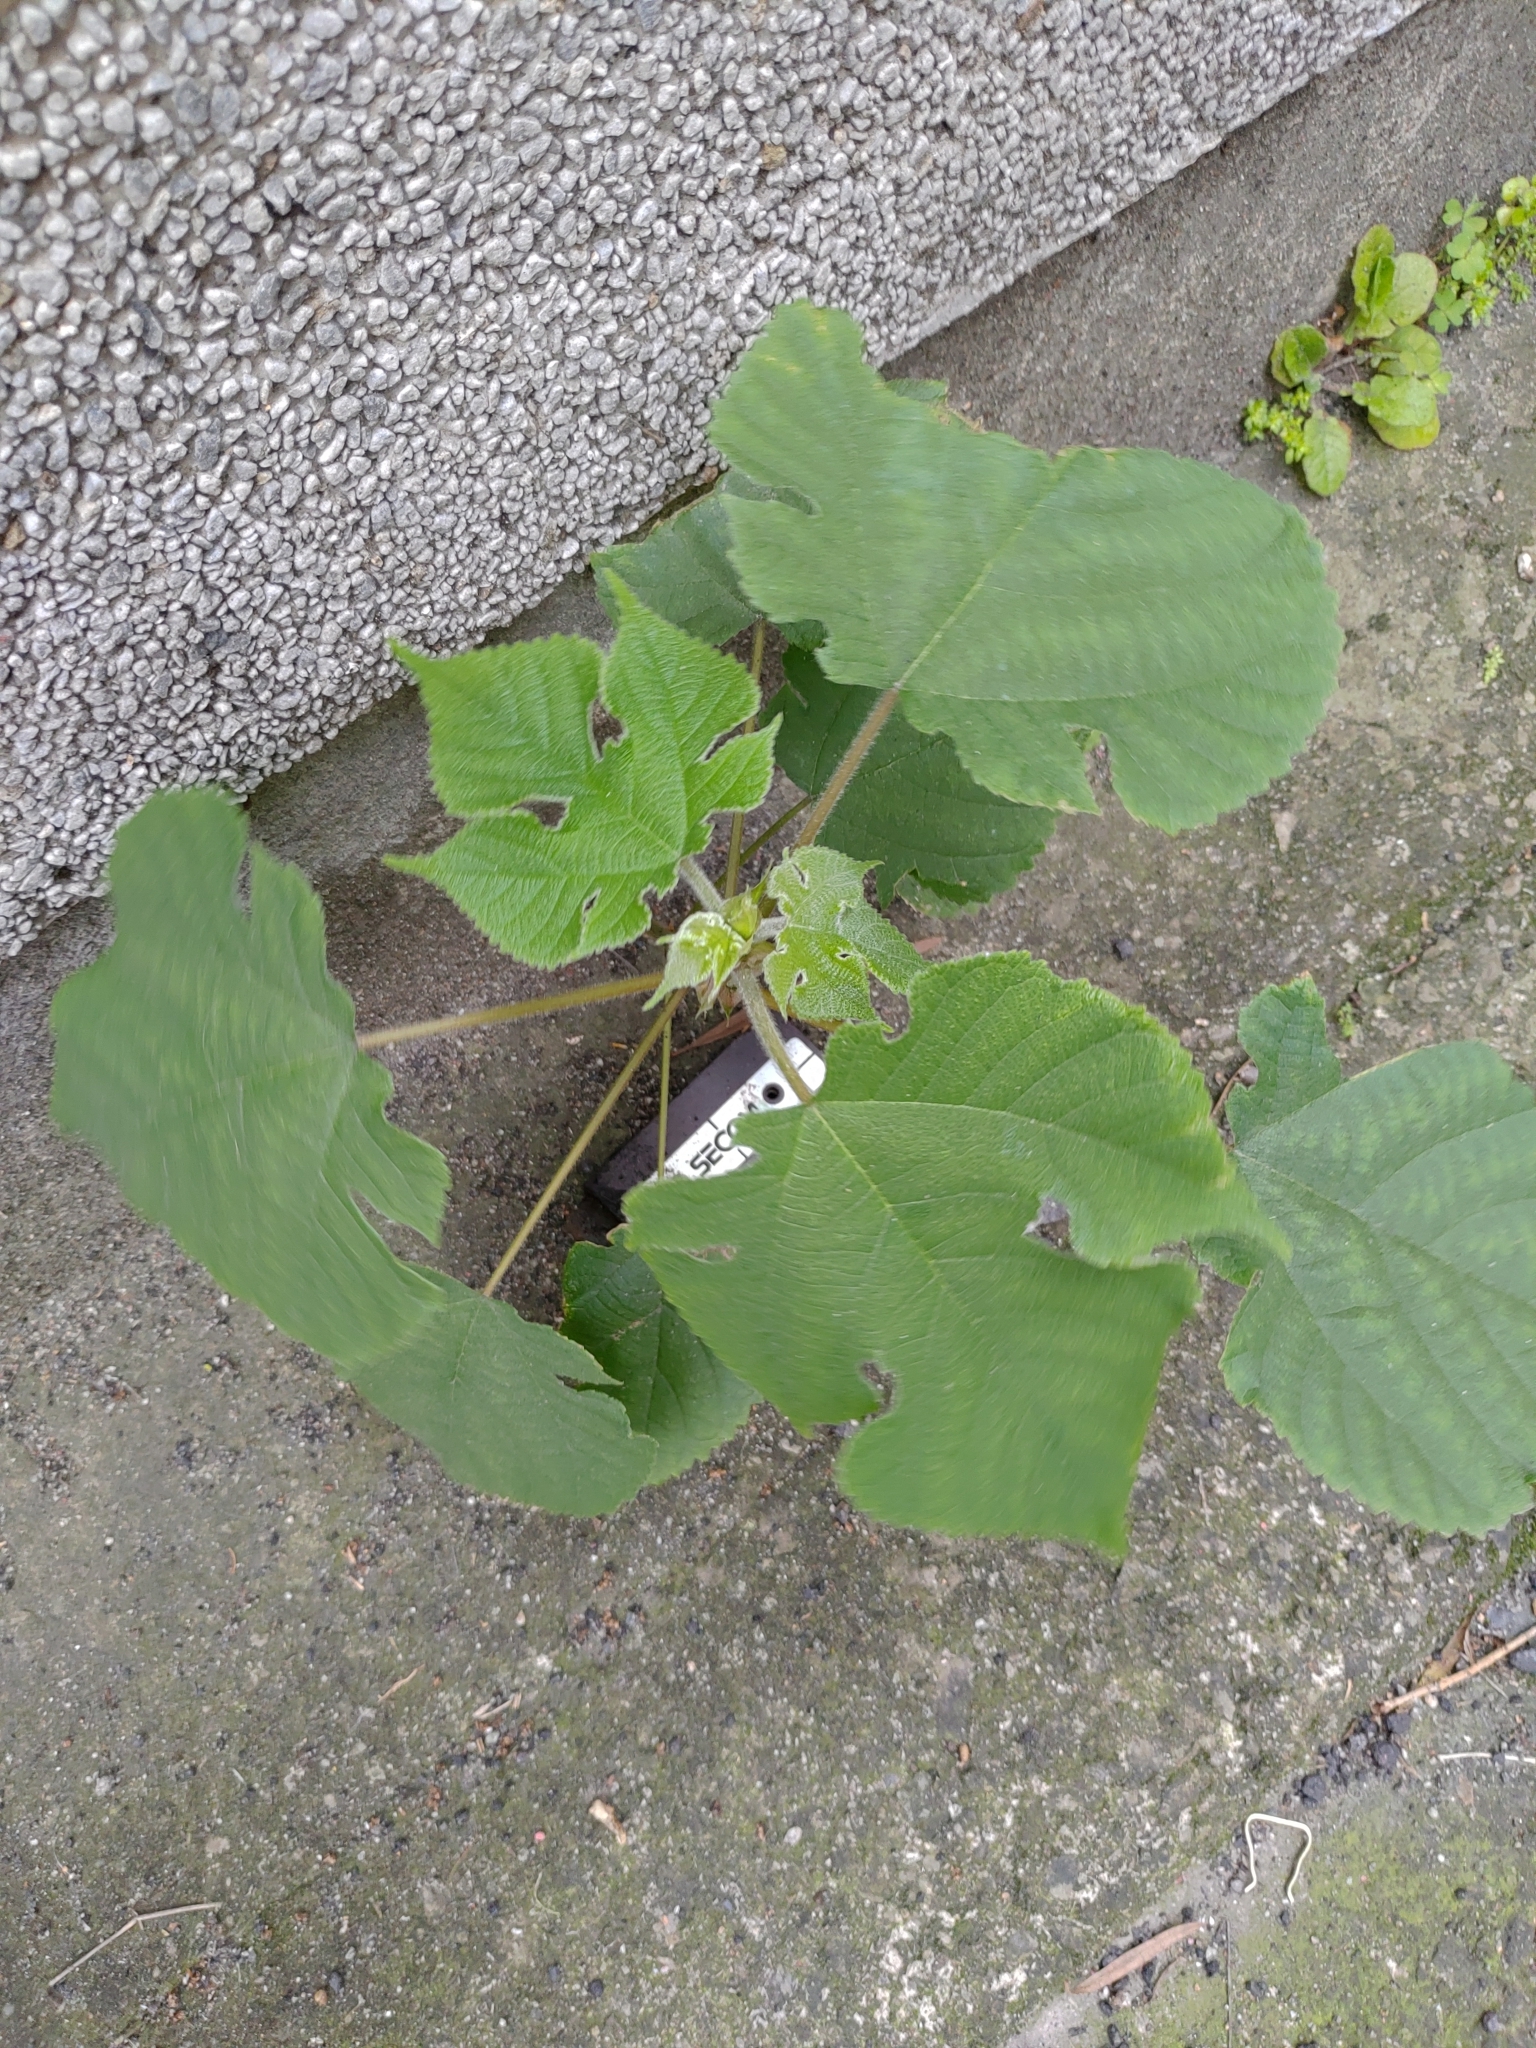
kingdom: Plantae
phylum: Tracheophyta
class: Magnoliopsida
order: Rosales
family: Moraceae
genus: Broussonetia
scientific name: Broussonetia papyrifera
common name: Paper mulberry
